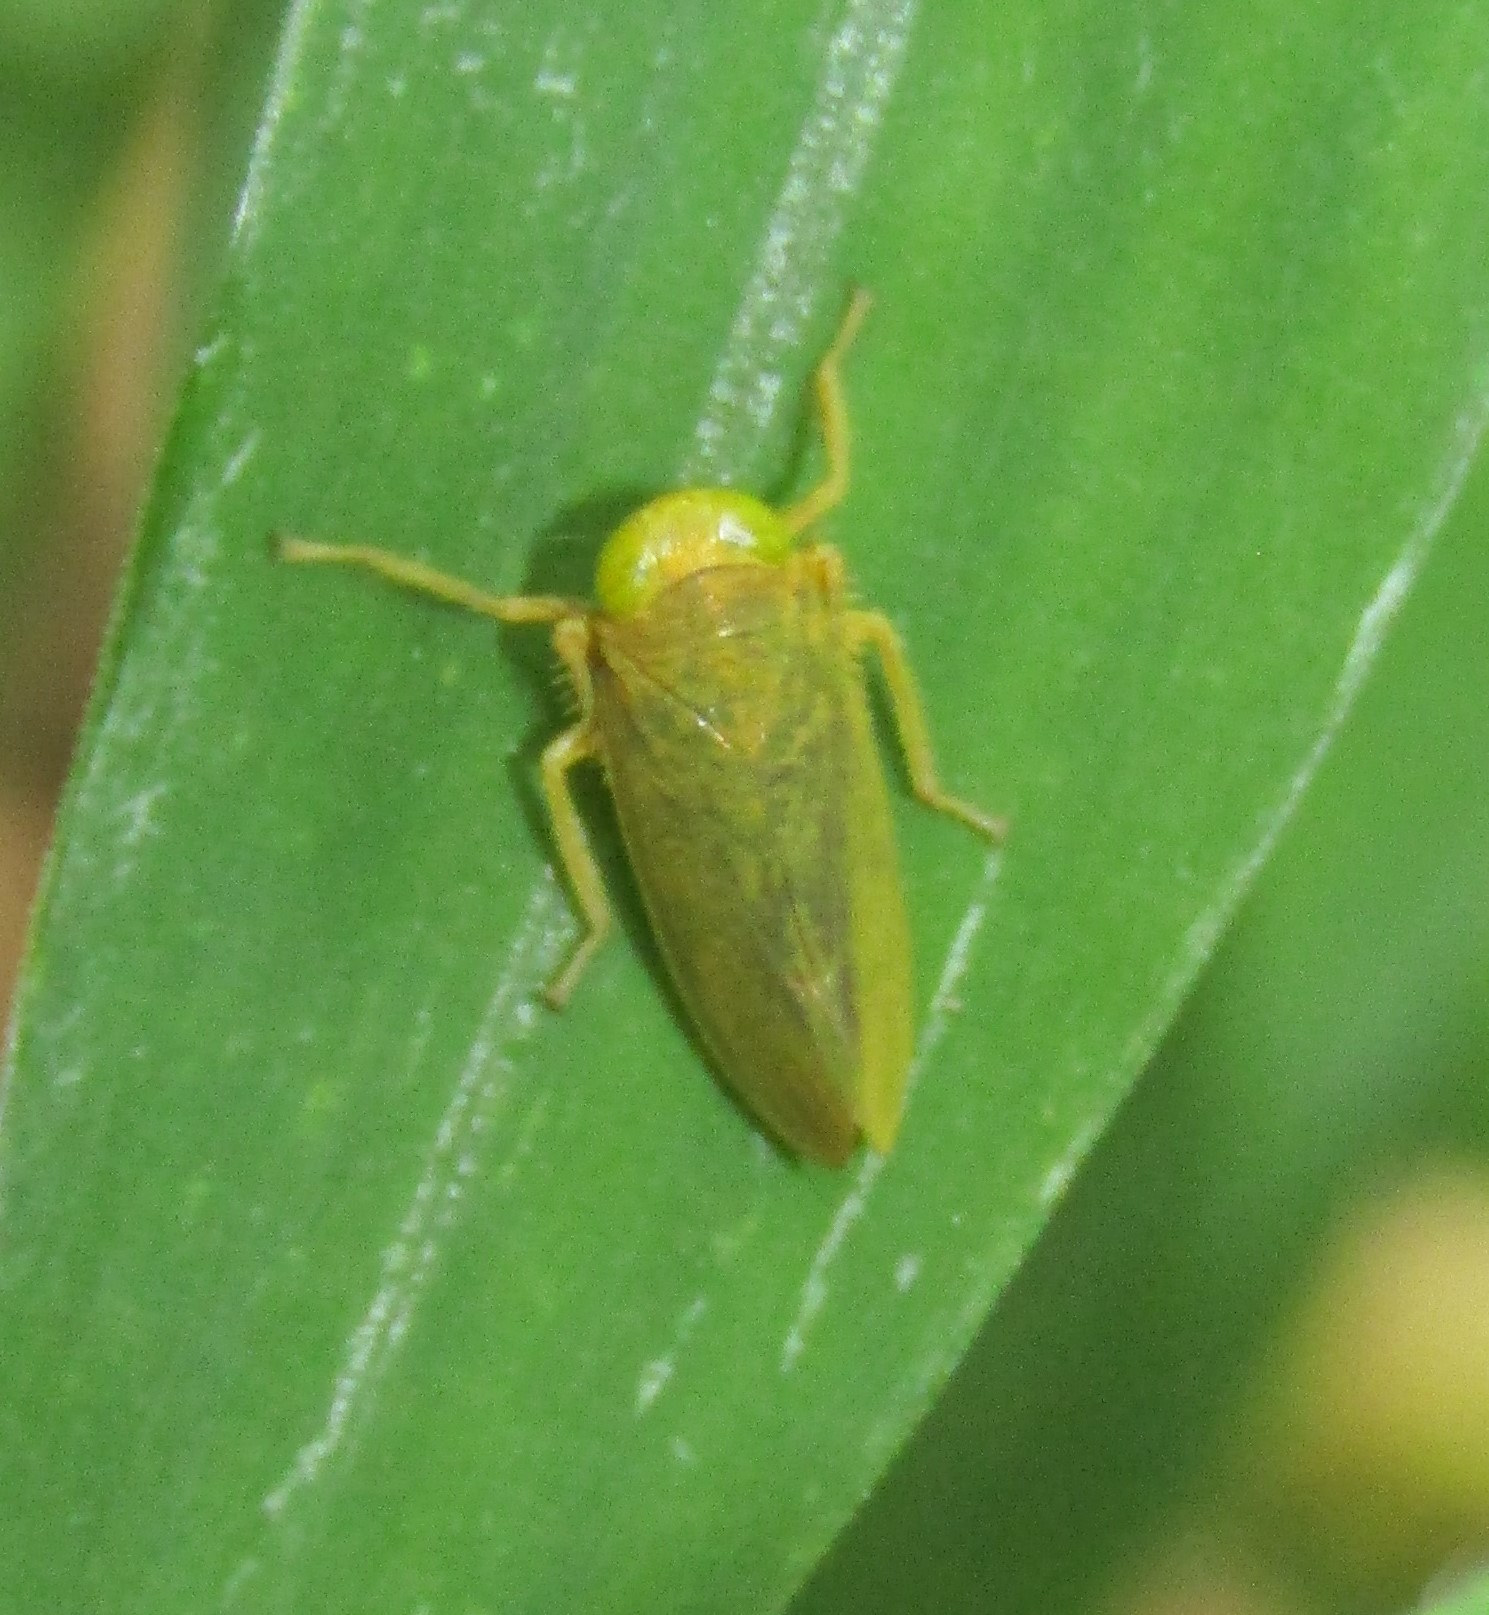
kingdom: Animalia
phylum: Arthropoda
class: Insecta
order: Hemiptera
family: Cicadellidae
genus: Jikradia
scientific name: Jikradia olitoria
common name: Coppery leafhopper
